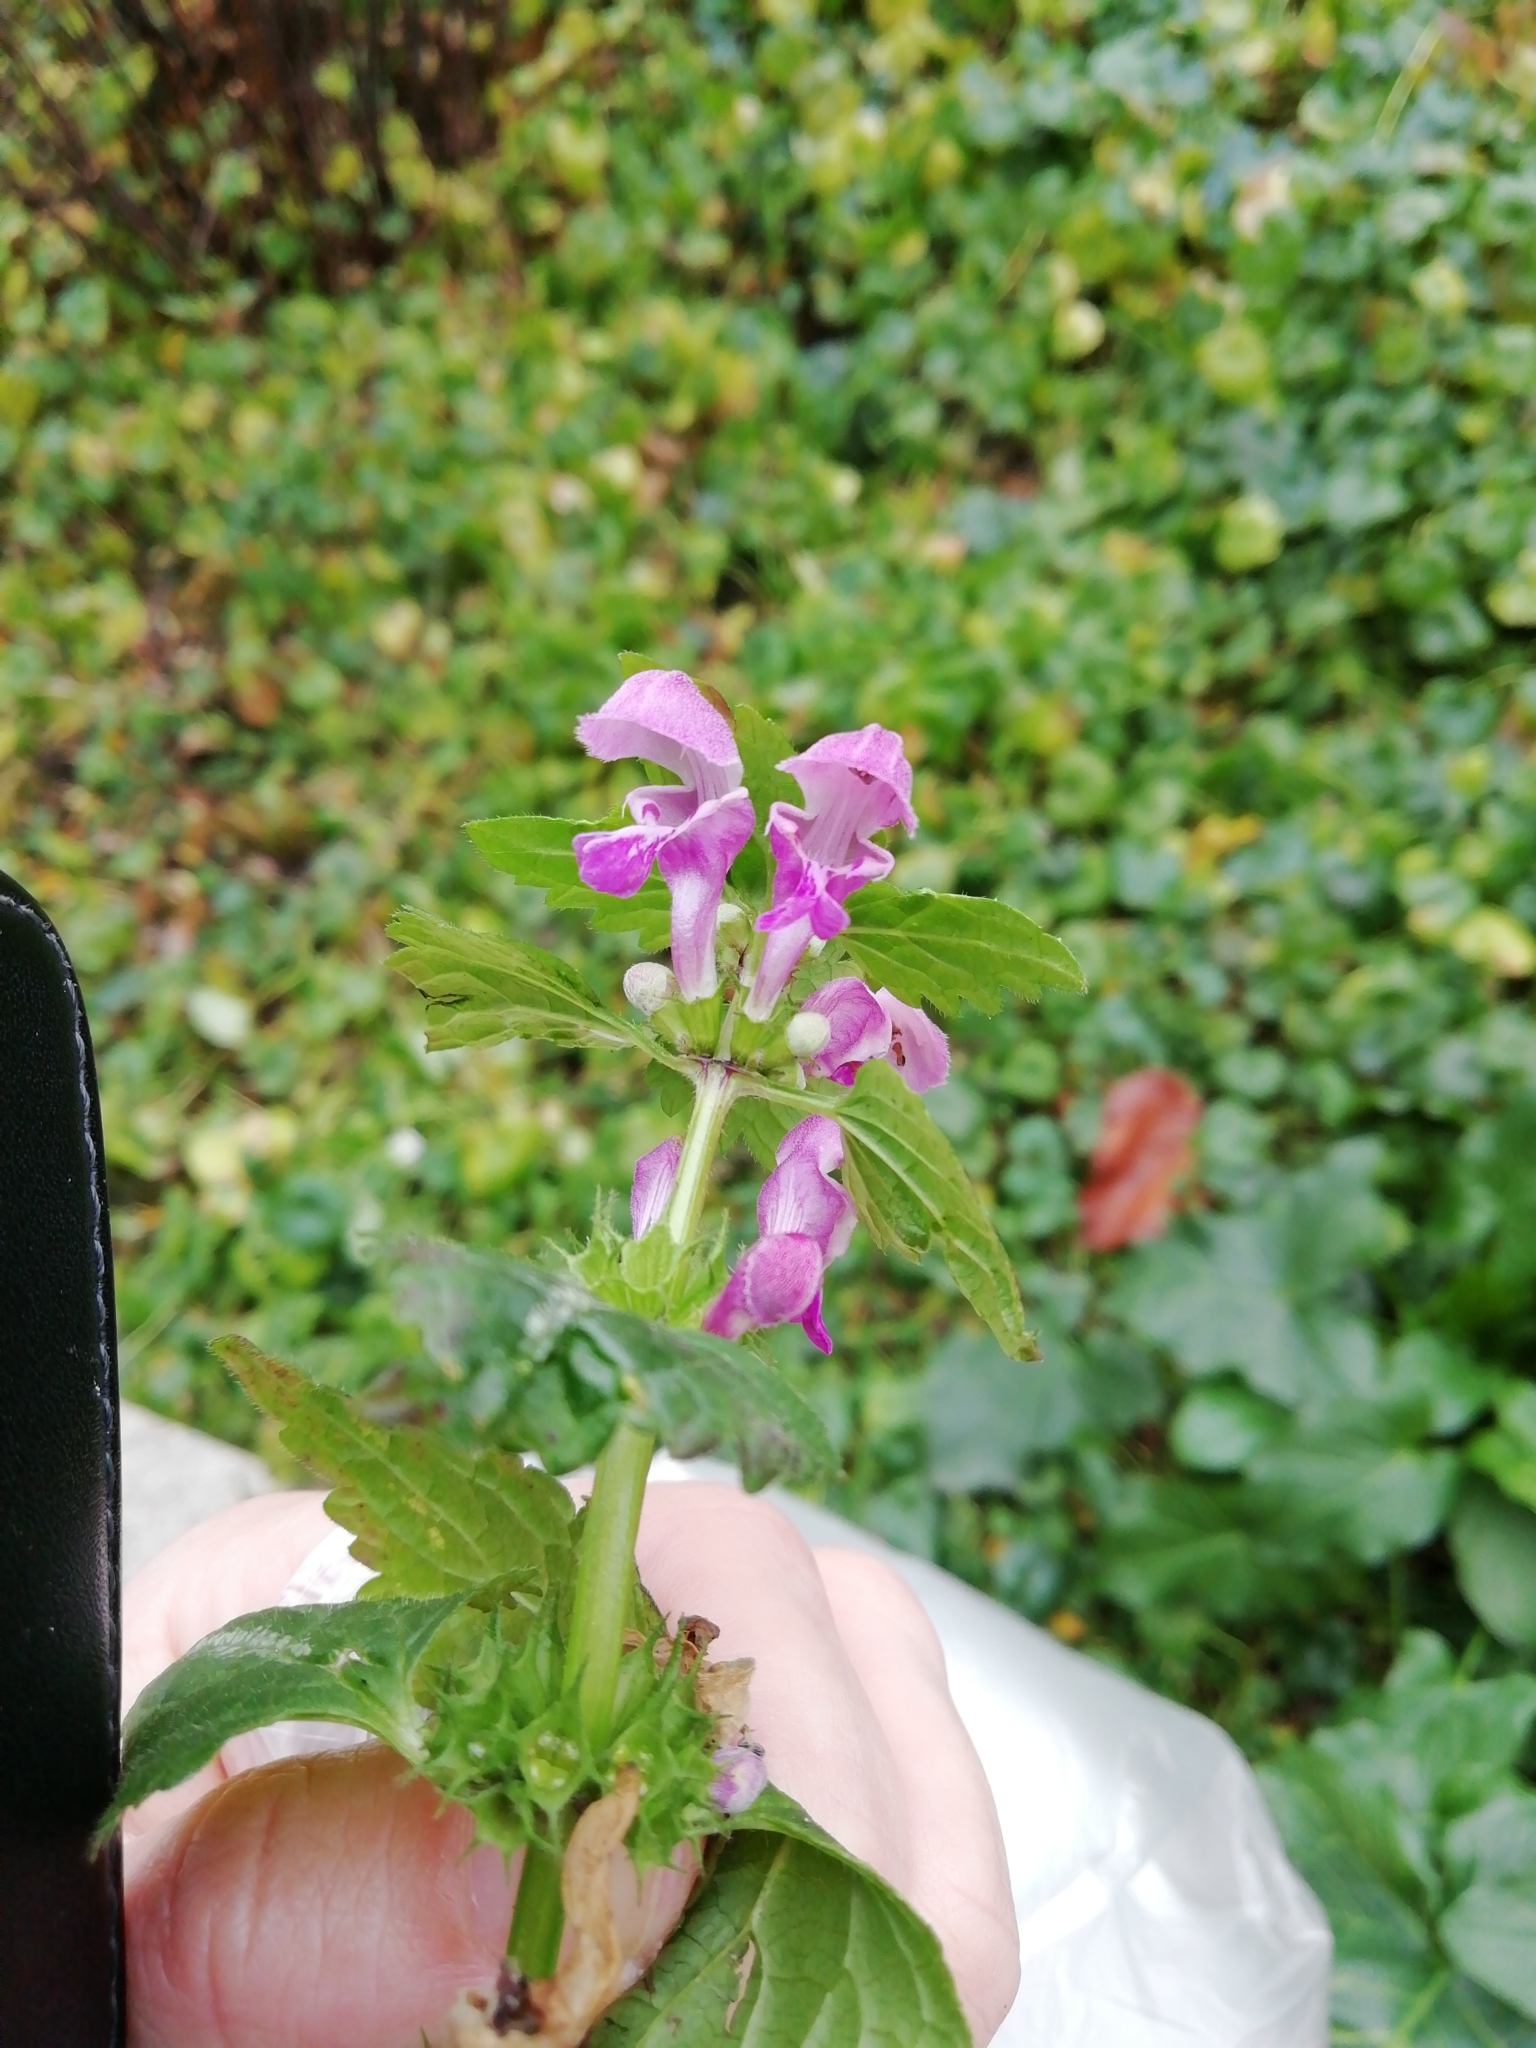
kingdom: Plantae
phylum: Tracheophyta
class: Magnoliopsida
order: Lamiales
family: Lamiaceae
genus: Lamium
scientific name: Lamium maculatum
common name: Spotted dead-nettle
